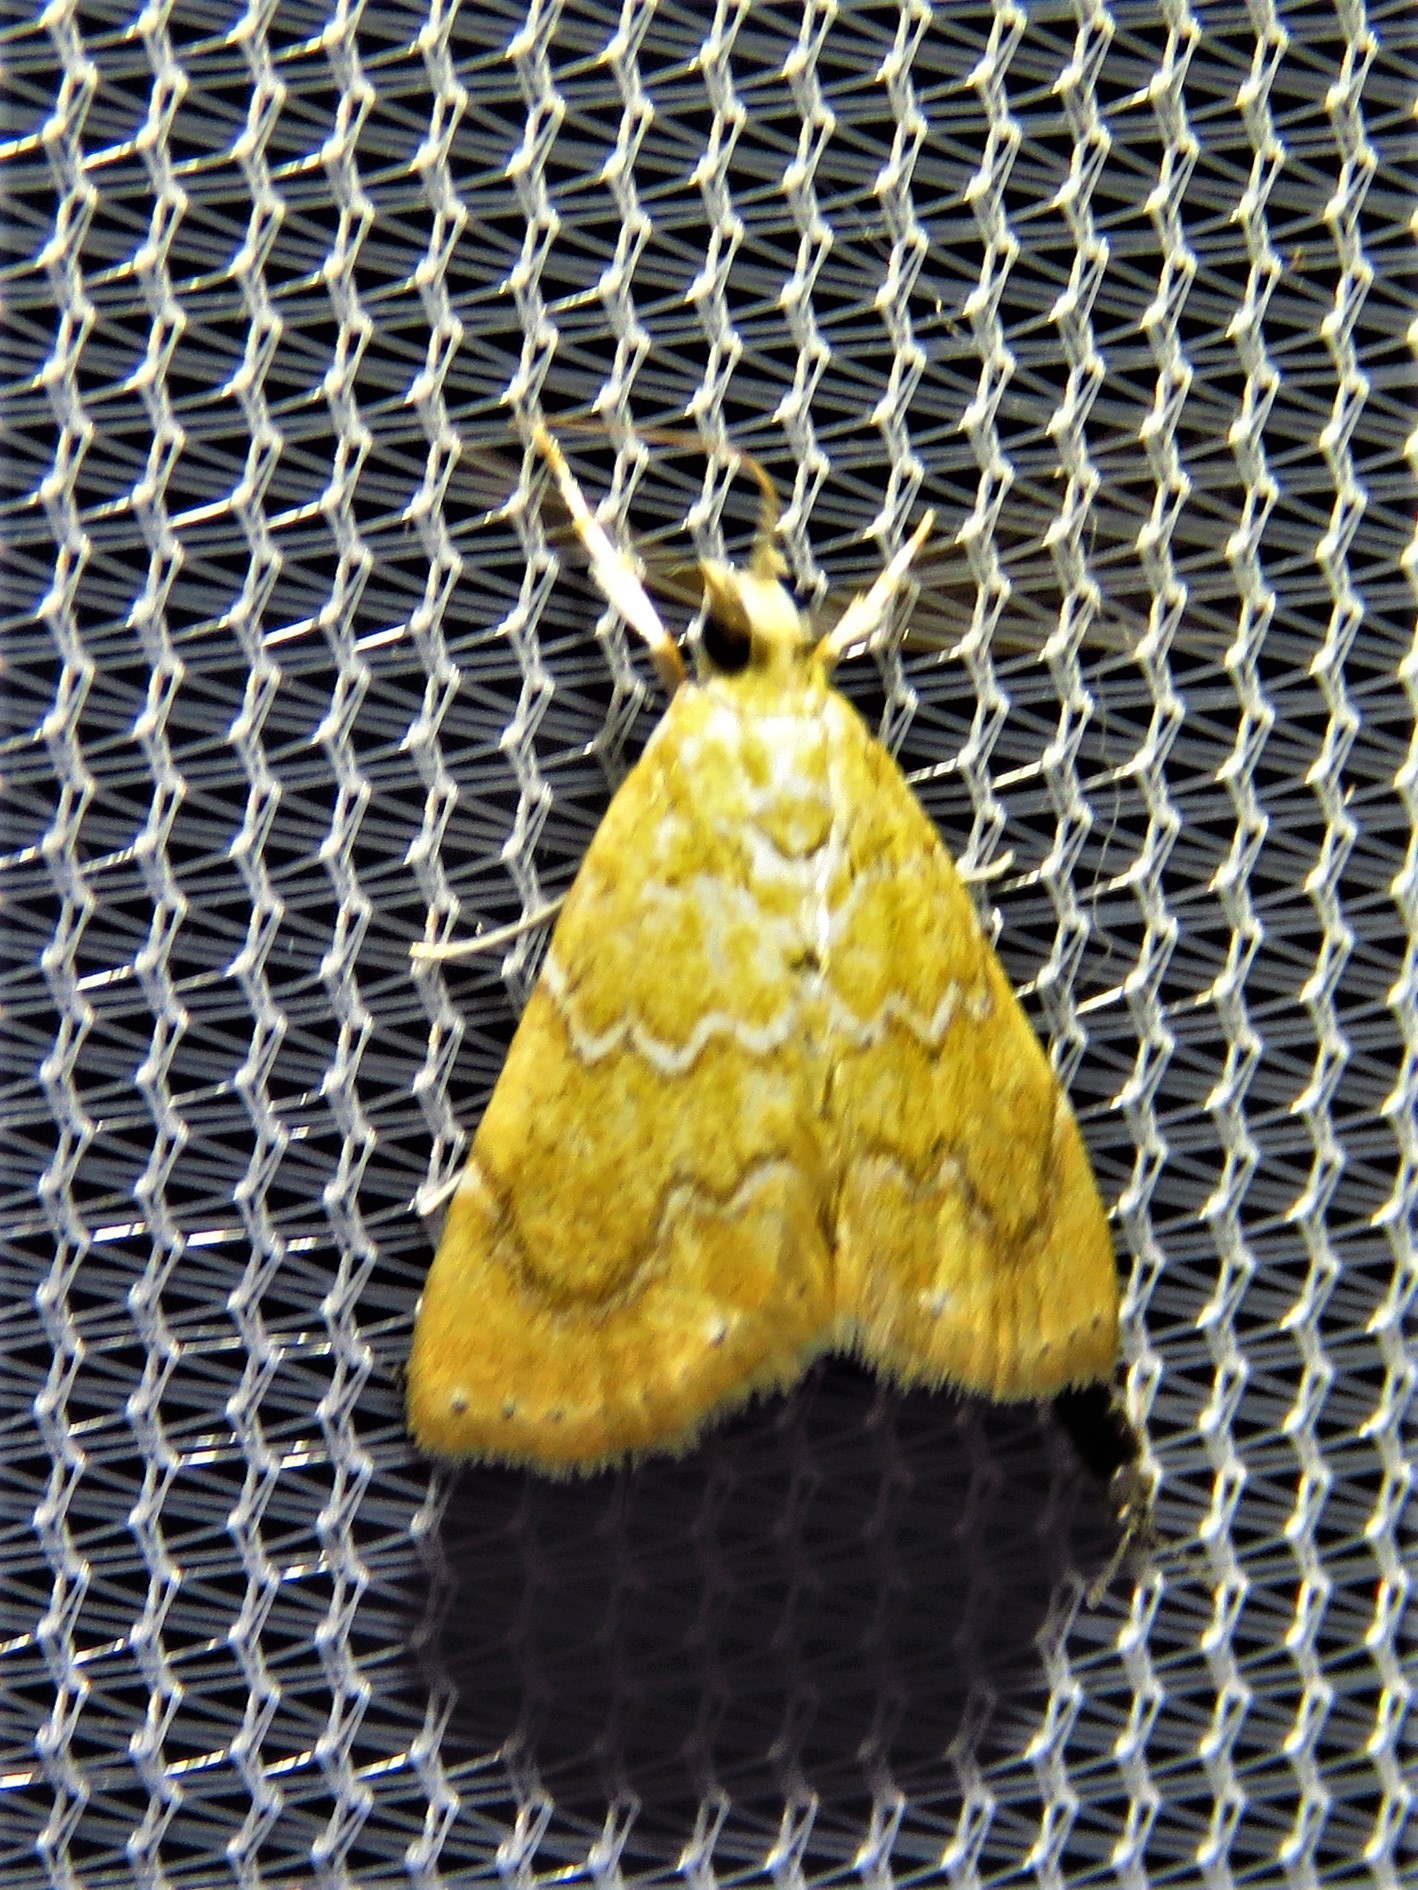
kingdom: Animalia
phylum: Arthropoda
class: Insecta
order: Lepidoptera
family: Crambidae
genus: Glaphyria
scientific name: Glaphyria sesquistrialis
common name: White-roped glaphyria
